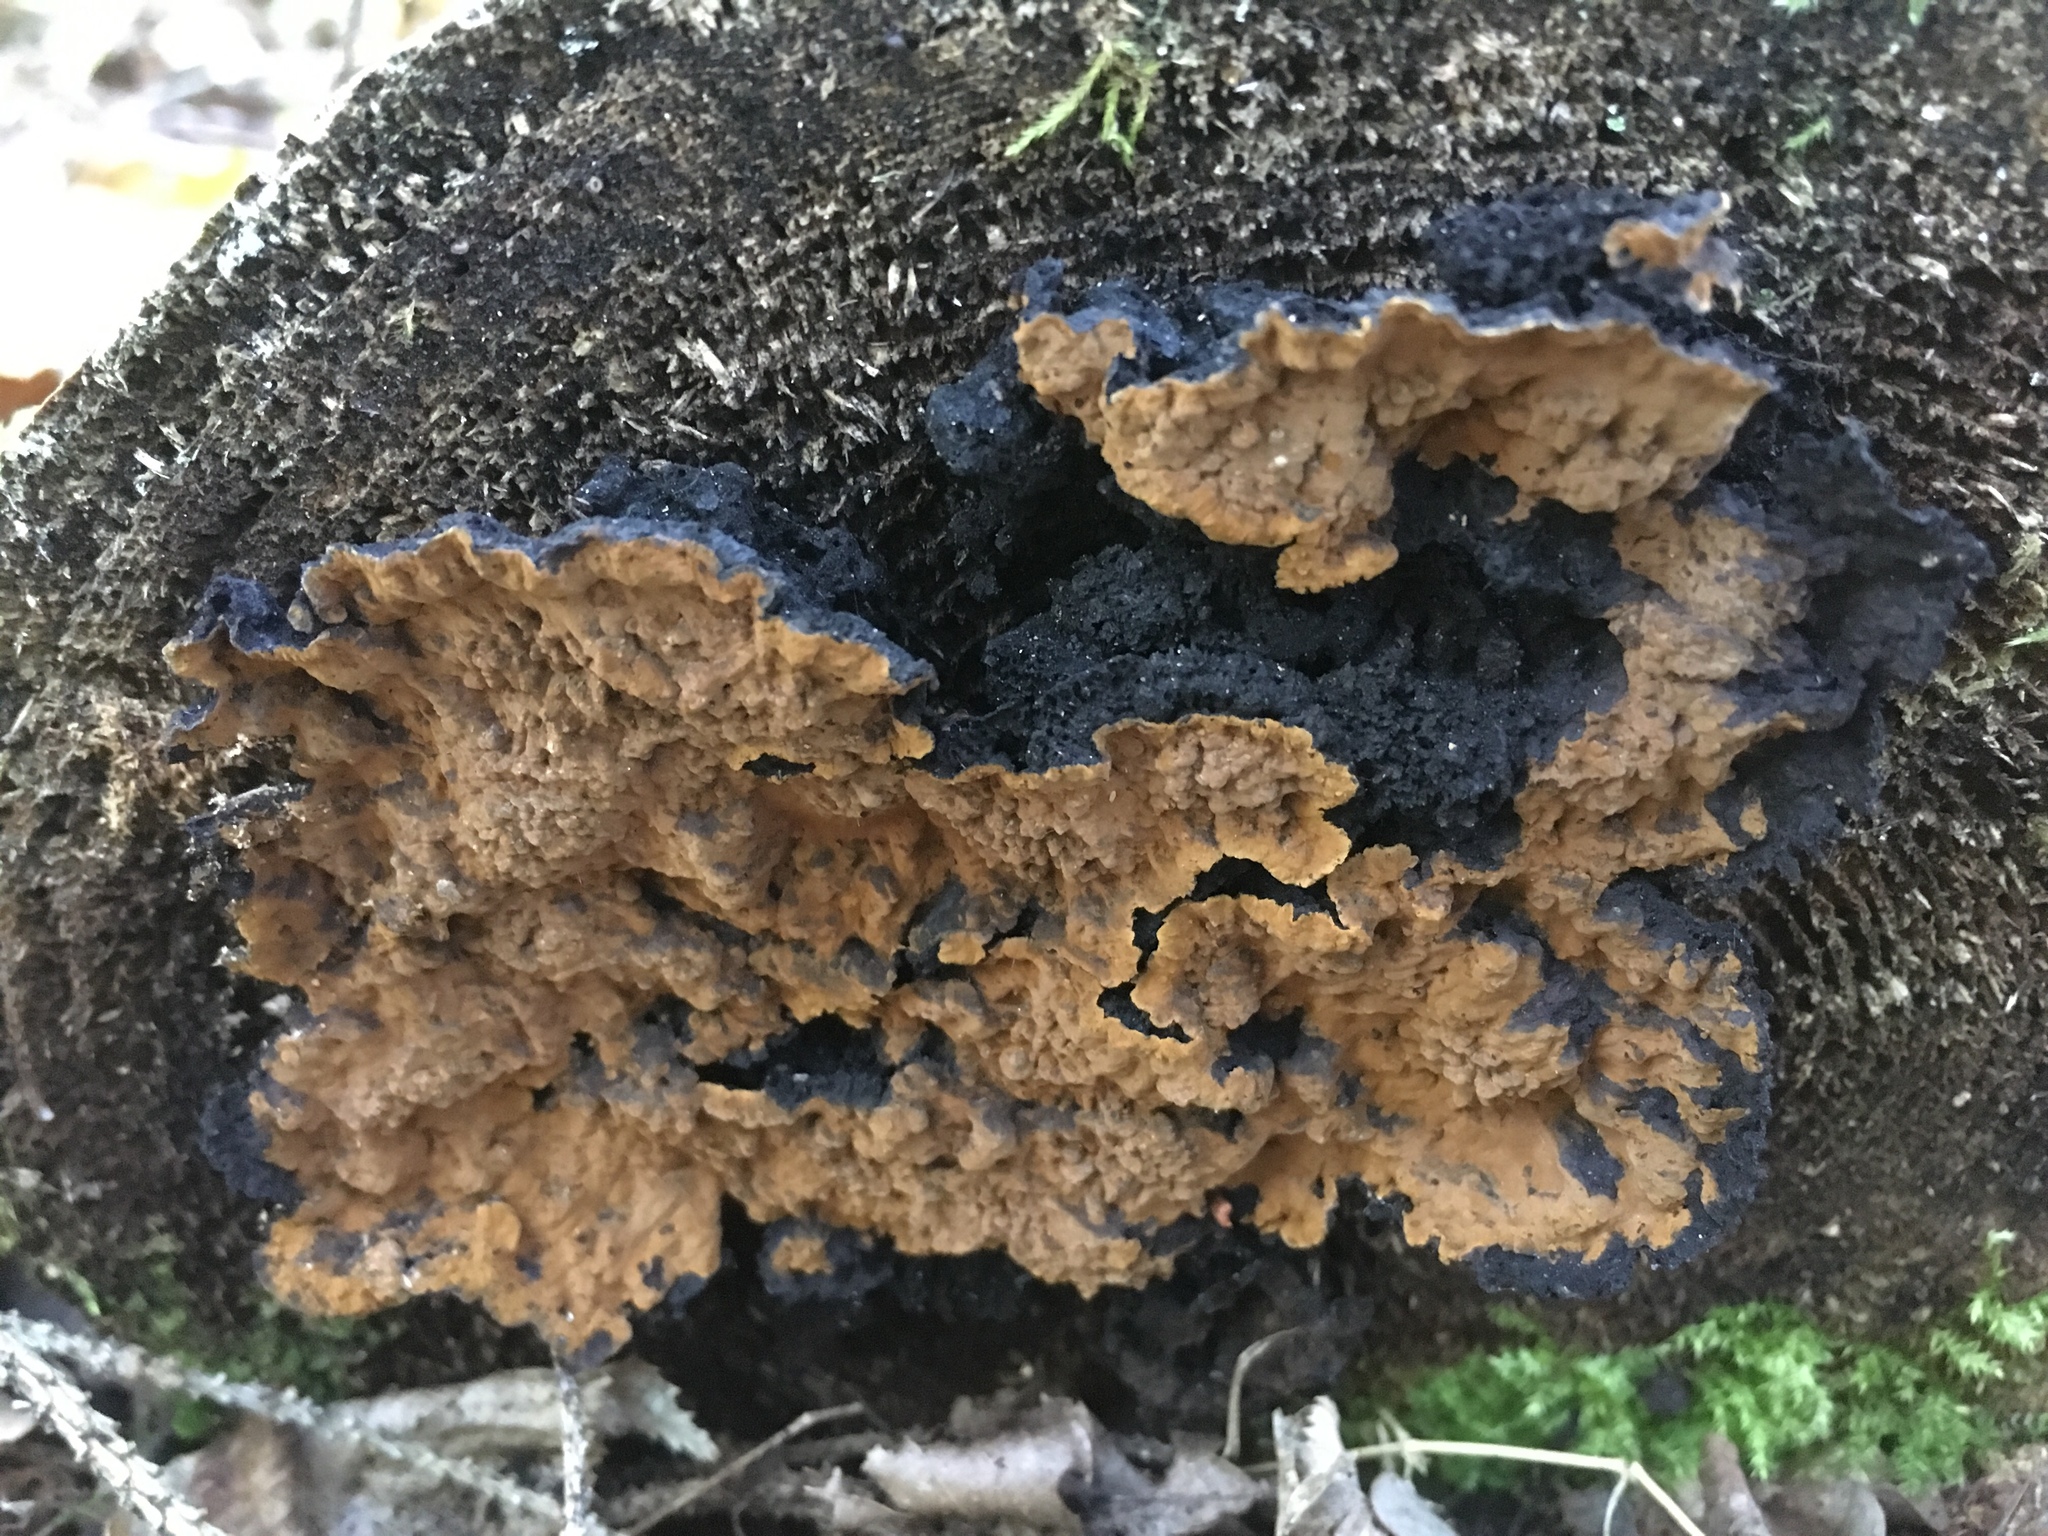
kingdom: Fungi
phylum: Basidiomycota
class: Agaricomycetes
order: Gloeophyllales
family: Gloeophyllaceae
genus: Boreostereum
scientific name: Boreostereum radiatum
